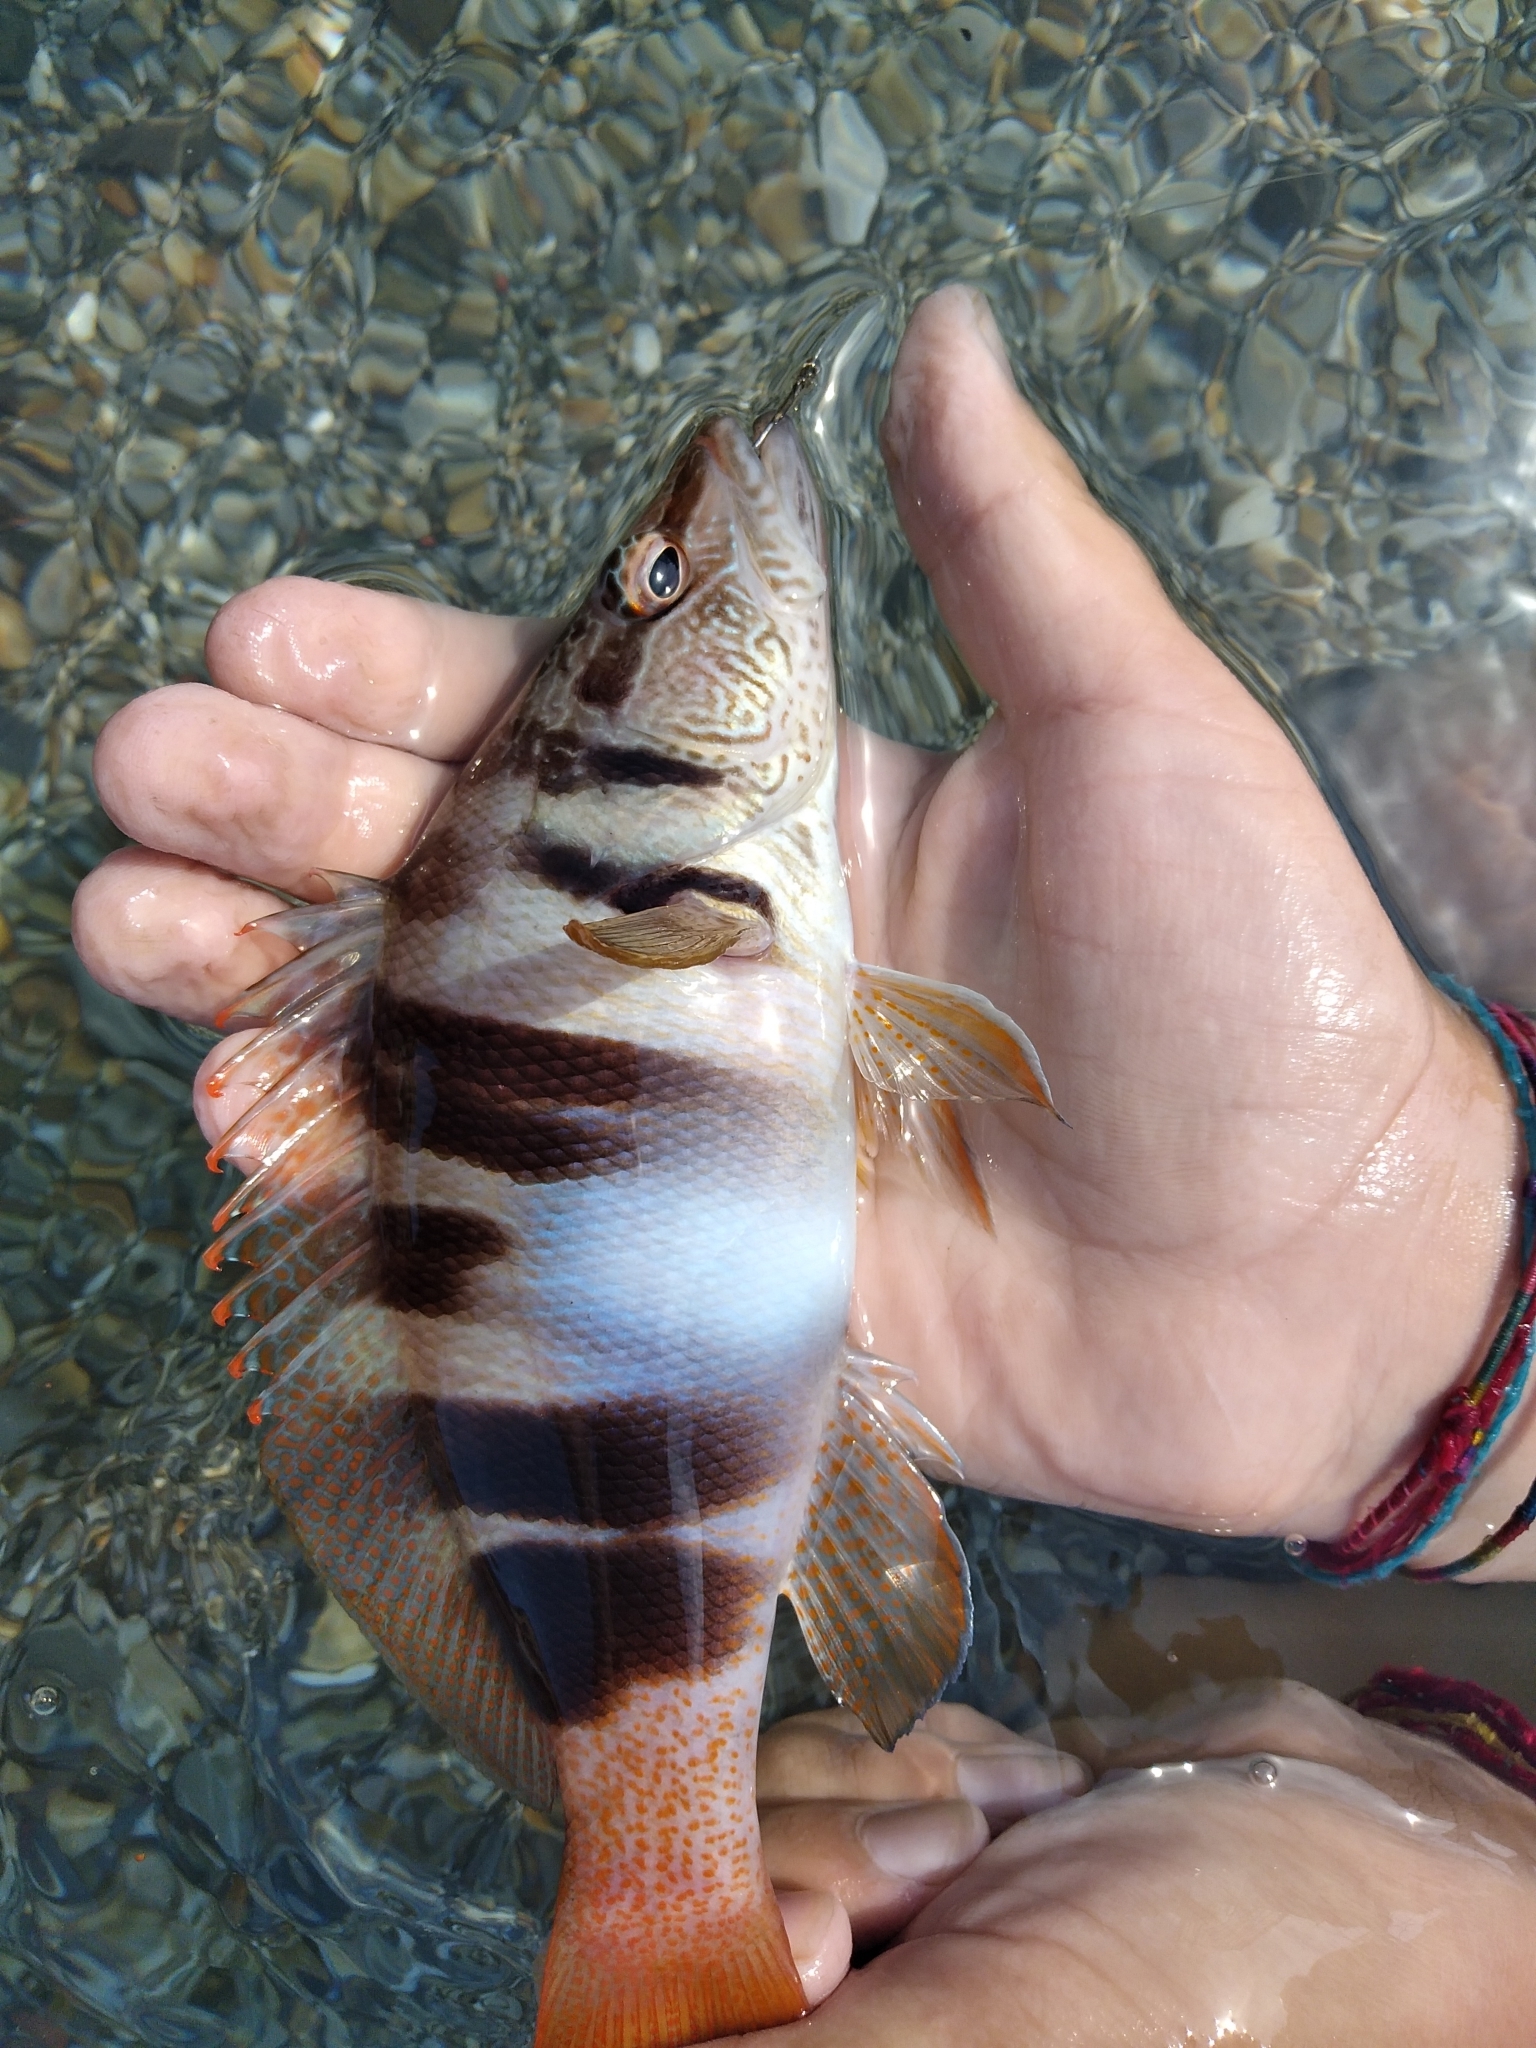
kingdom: Animalia
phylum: Chordata
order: Perciformes
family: Serranidae
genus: Serranus
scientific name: Serranus scriba
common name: Painted comber
